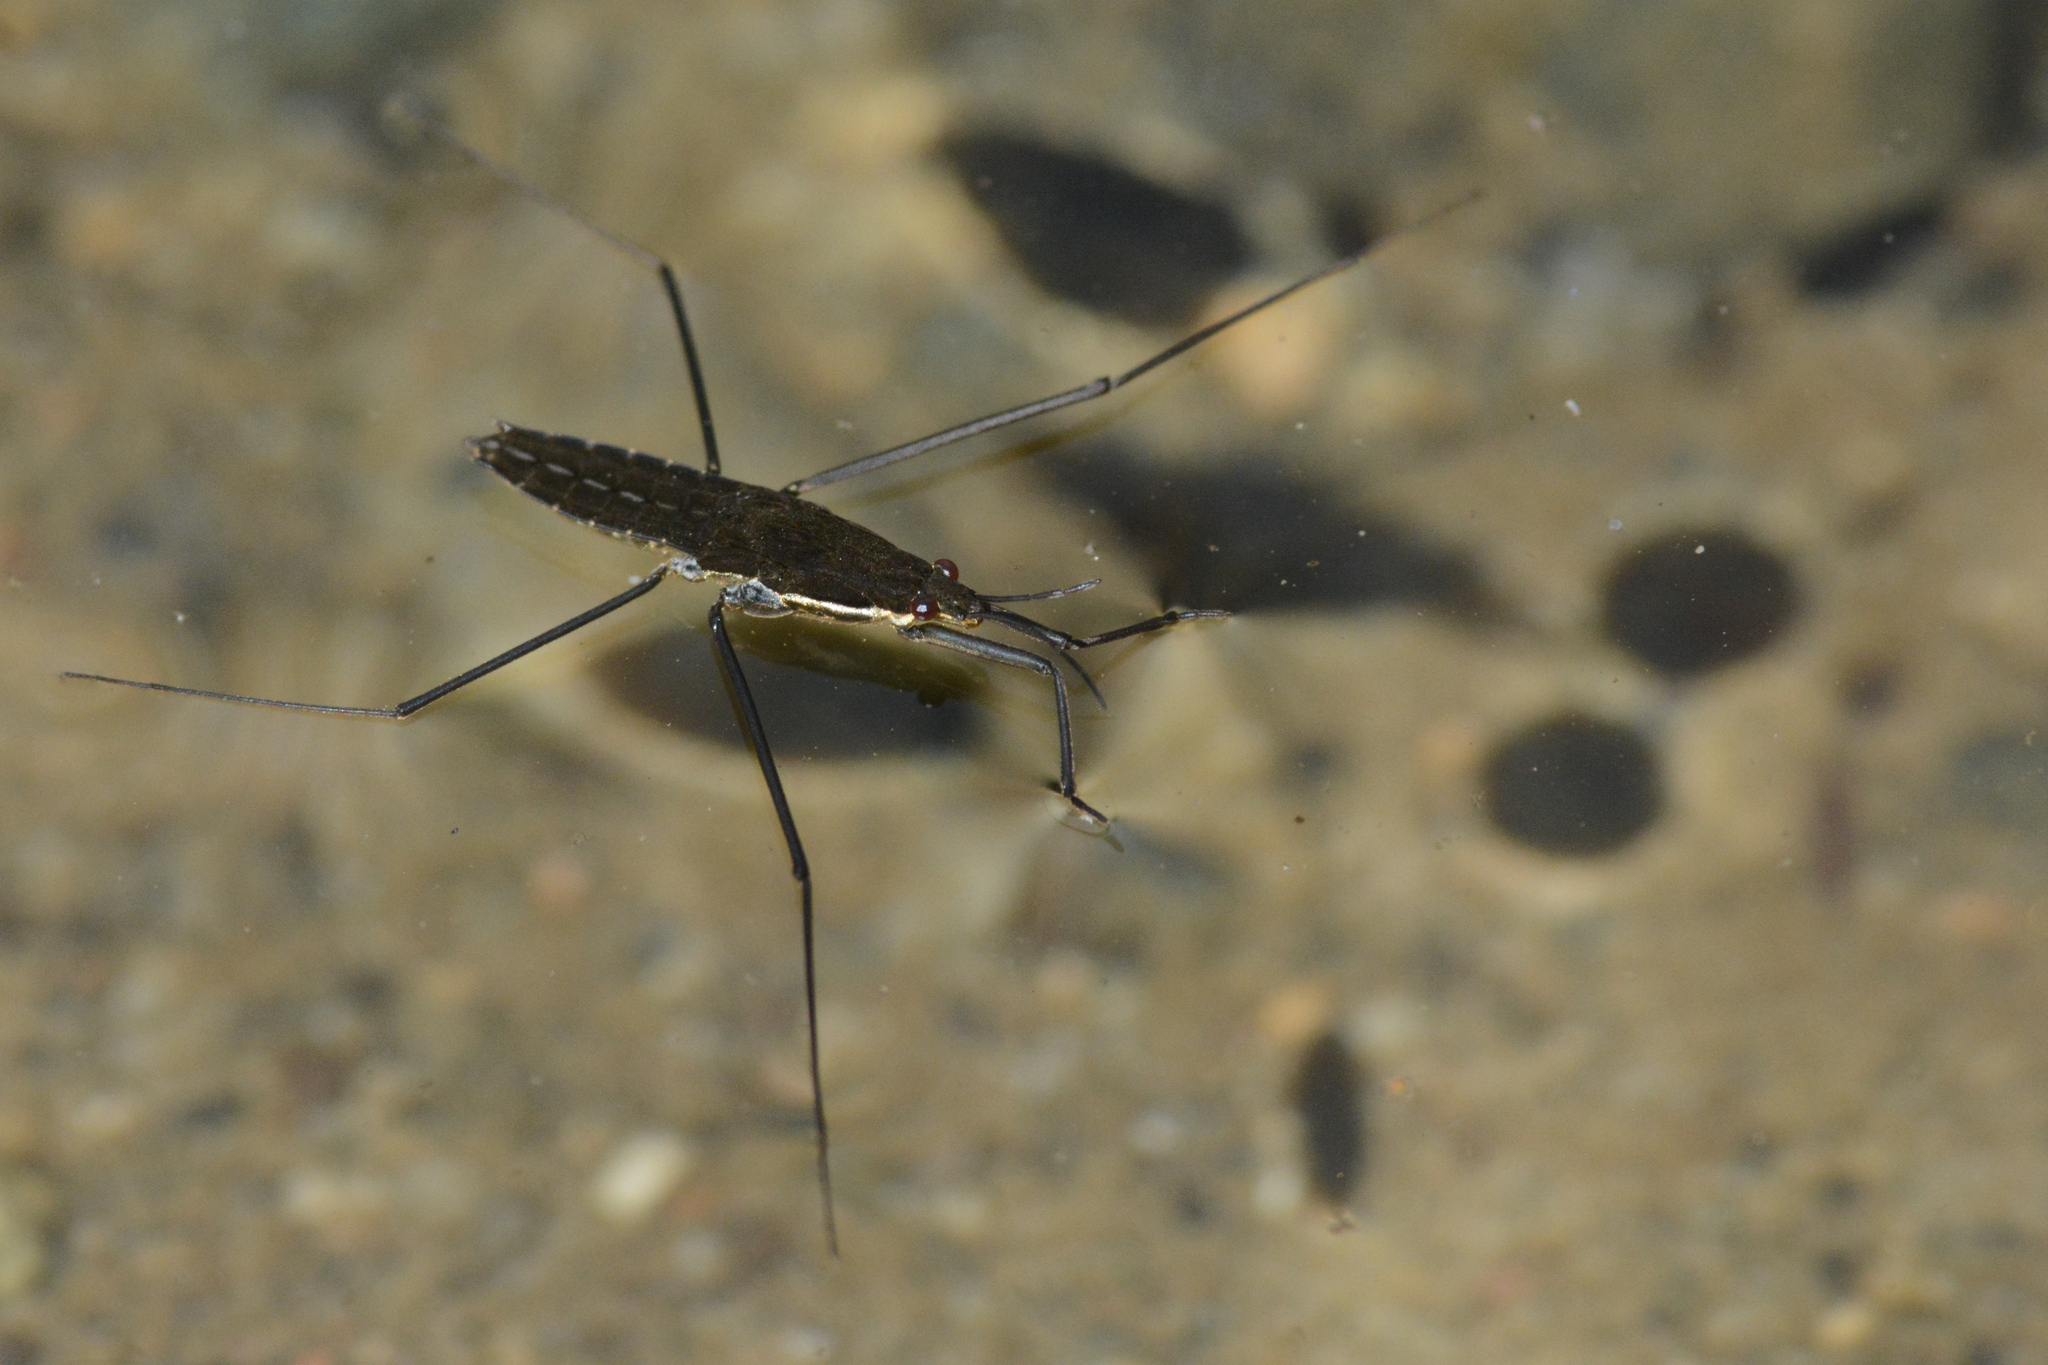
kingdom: Animalia
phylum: Arthropoda
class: Insecta
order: Hemiptera
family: Gerridae
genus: Aquarius
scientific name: Aquarius remigis
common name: Common water strider
